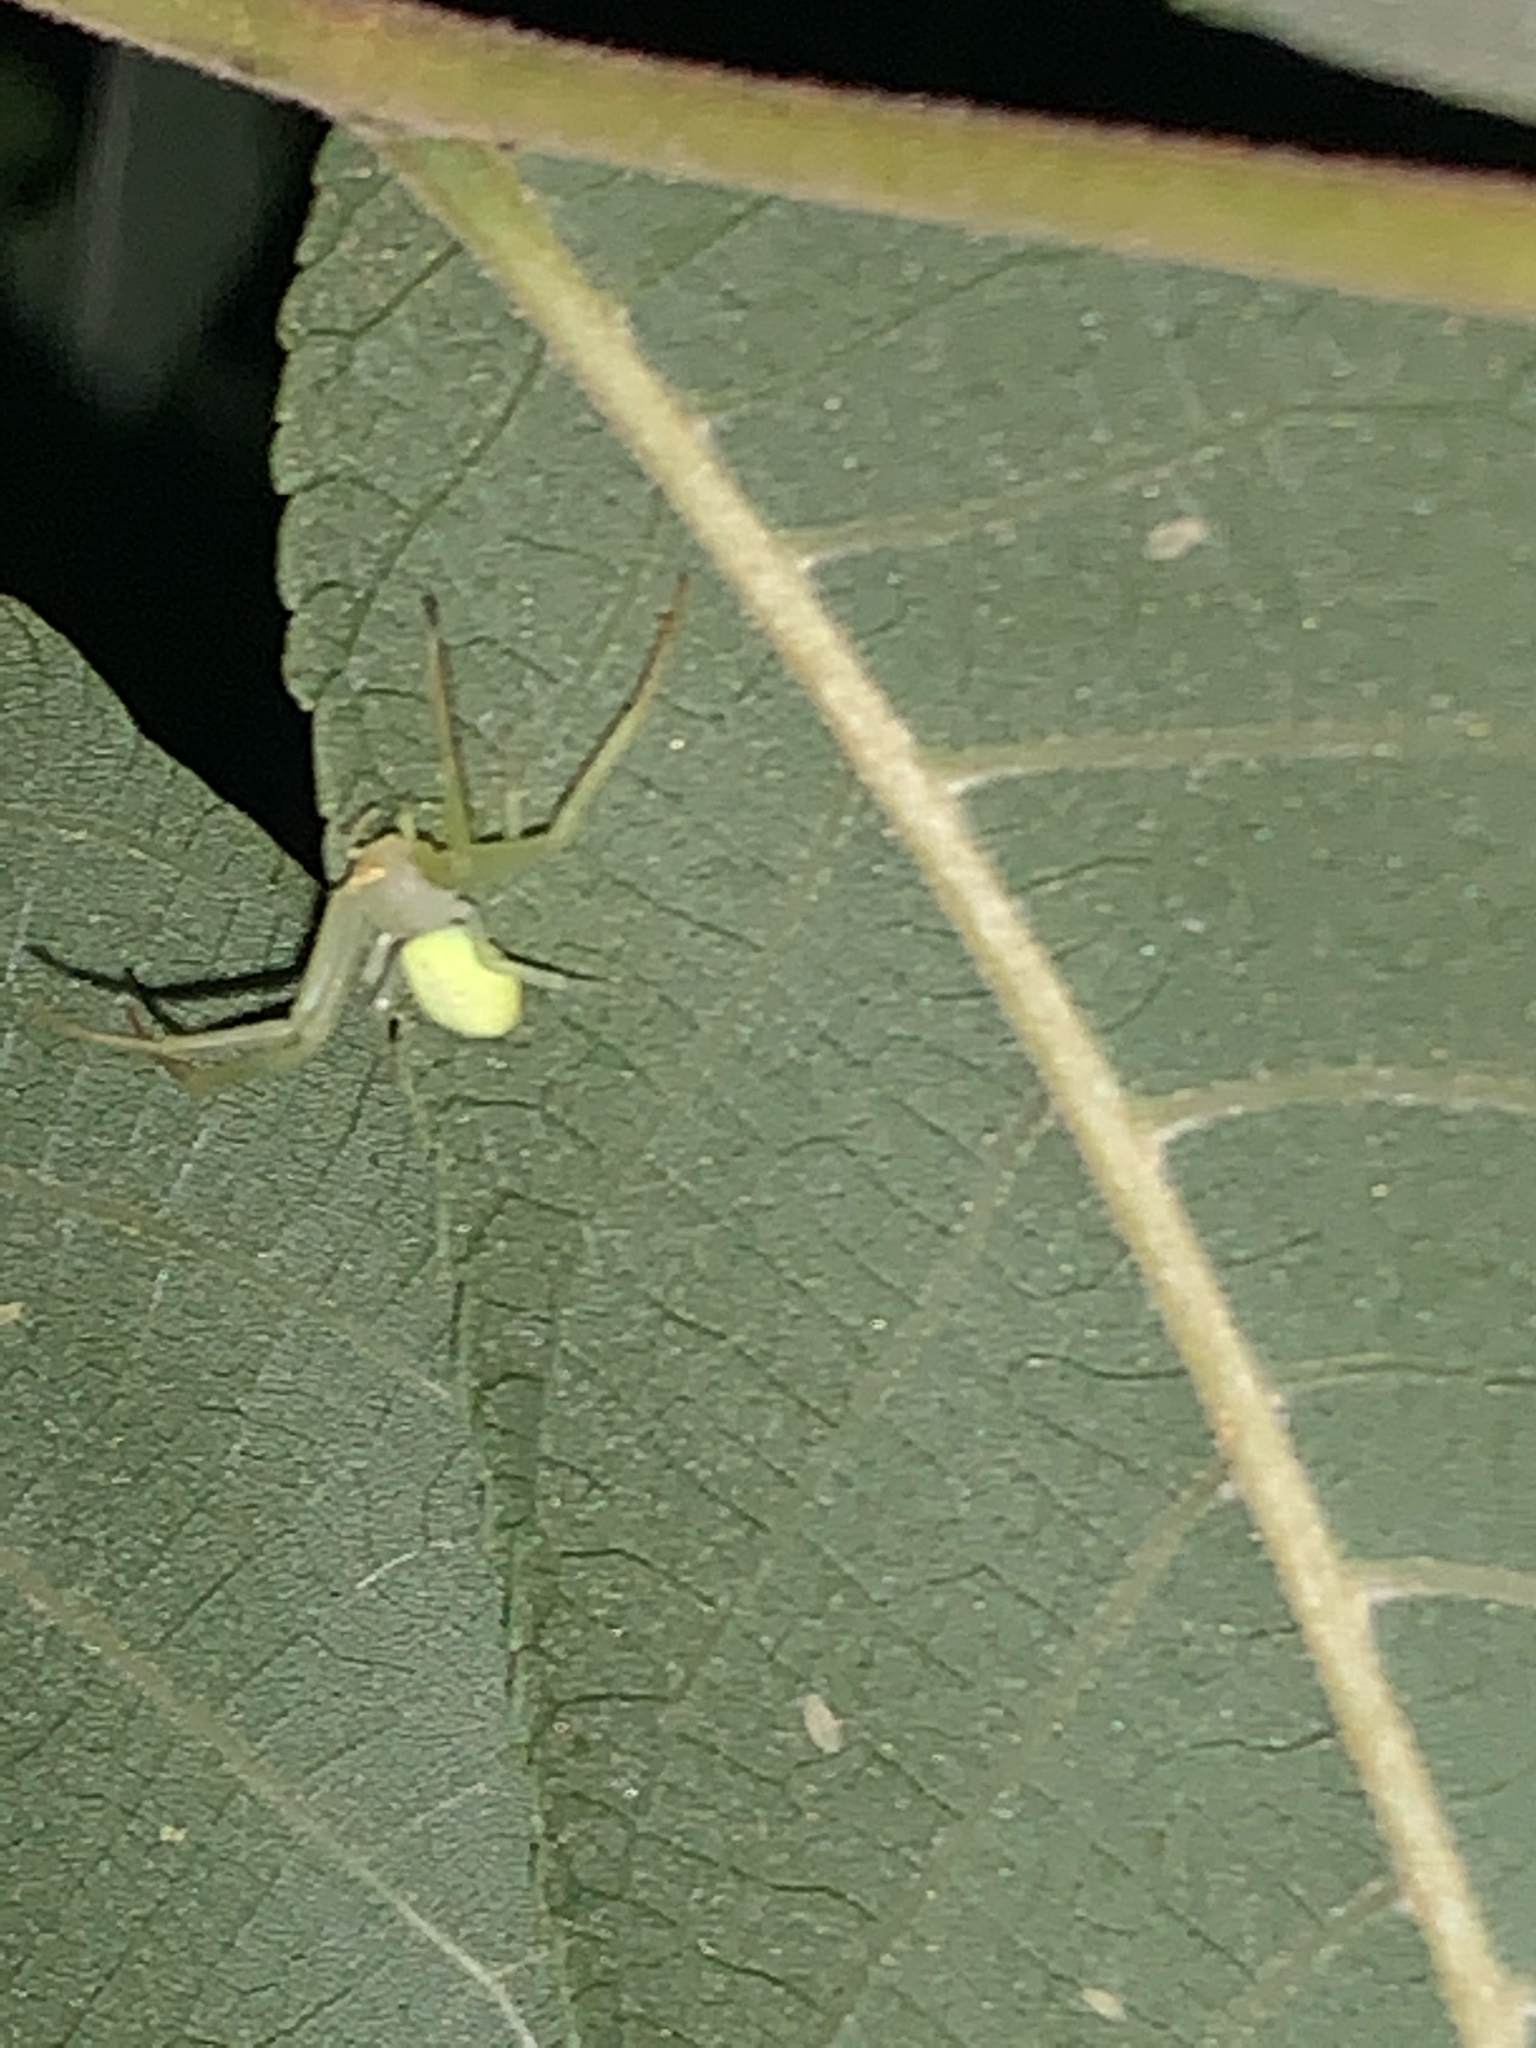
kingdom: Animalia
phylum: Arthropoda
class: Arachnida
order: Araneae
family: Thomisidae
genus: Misumessus
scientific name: Misumessus oblongus
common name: American green crab spider
